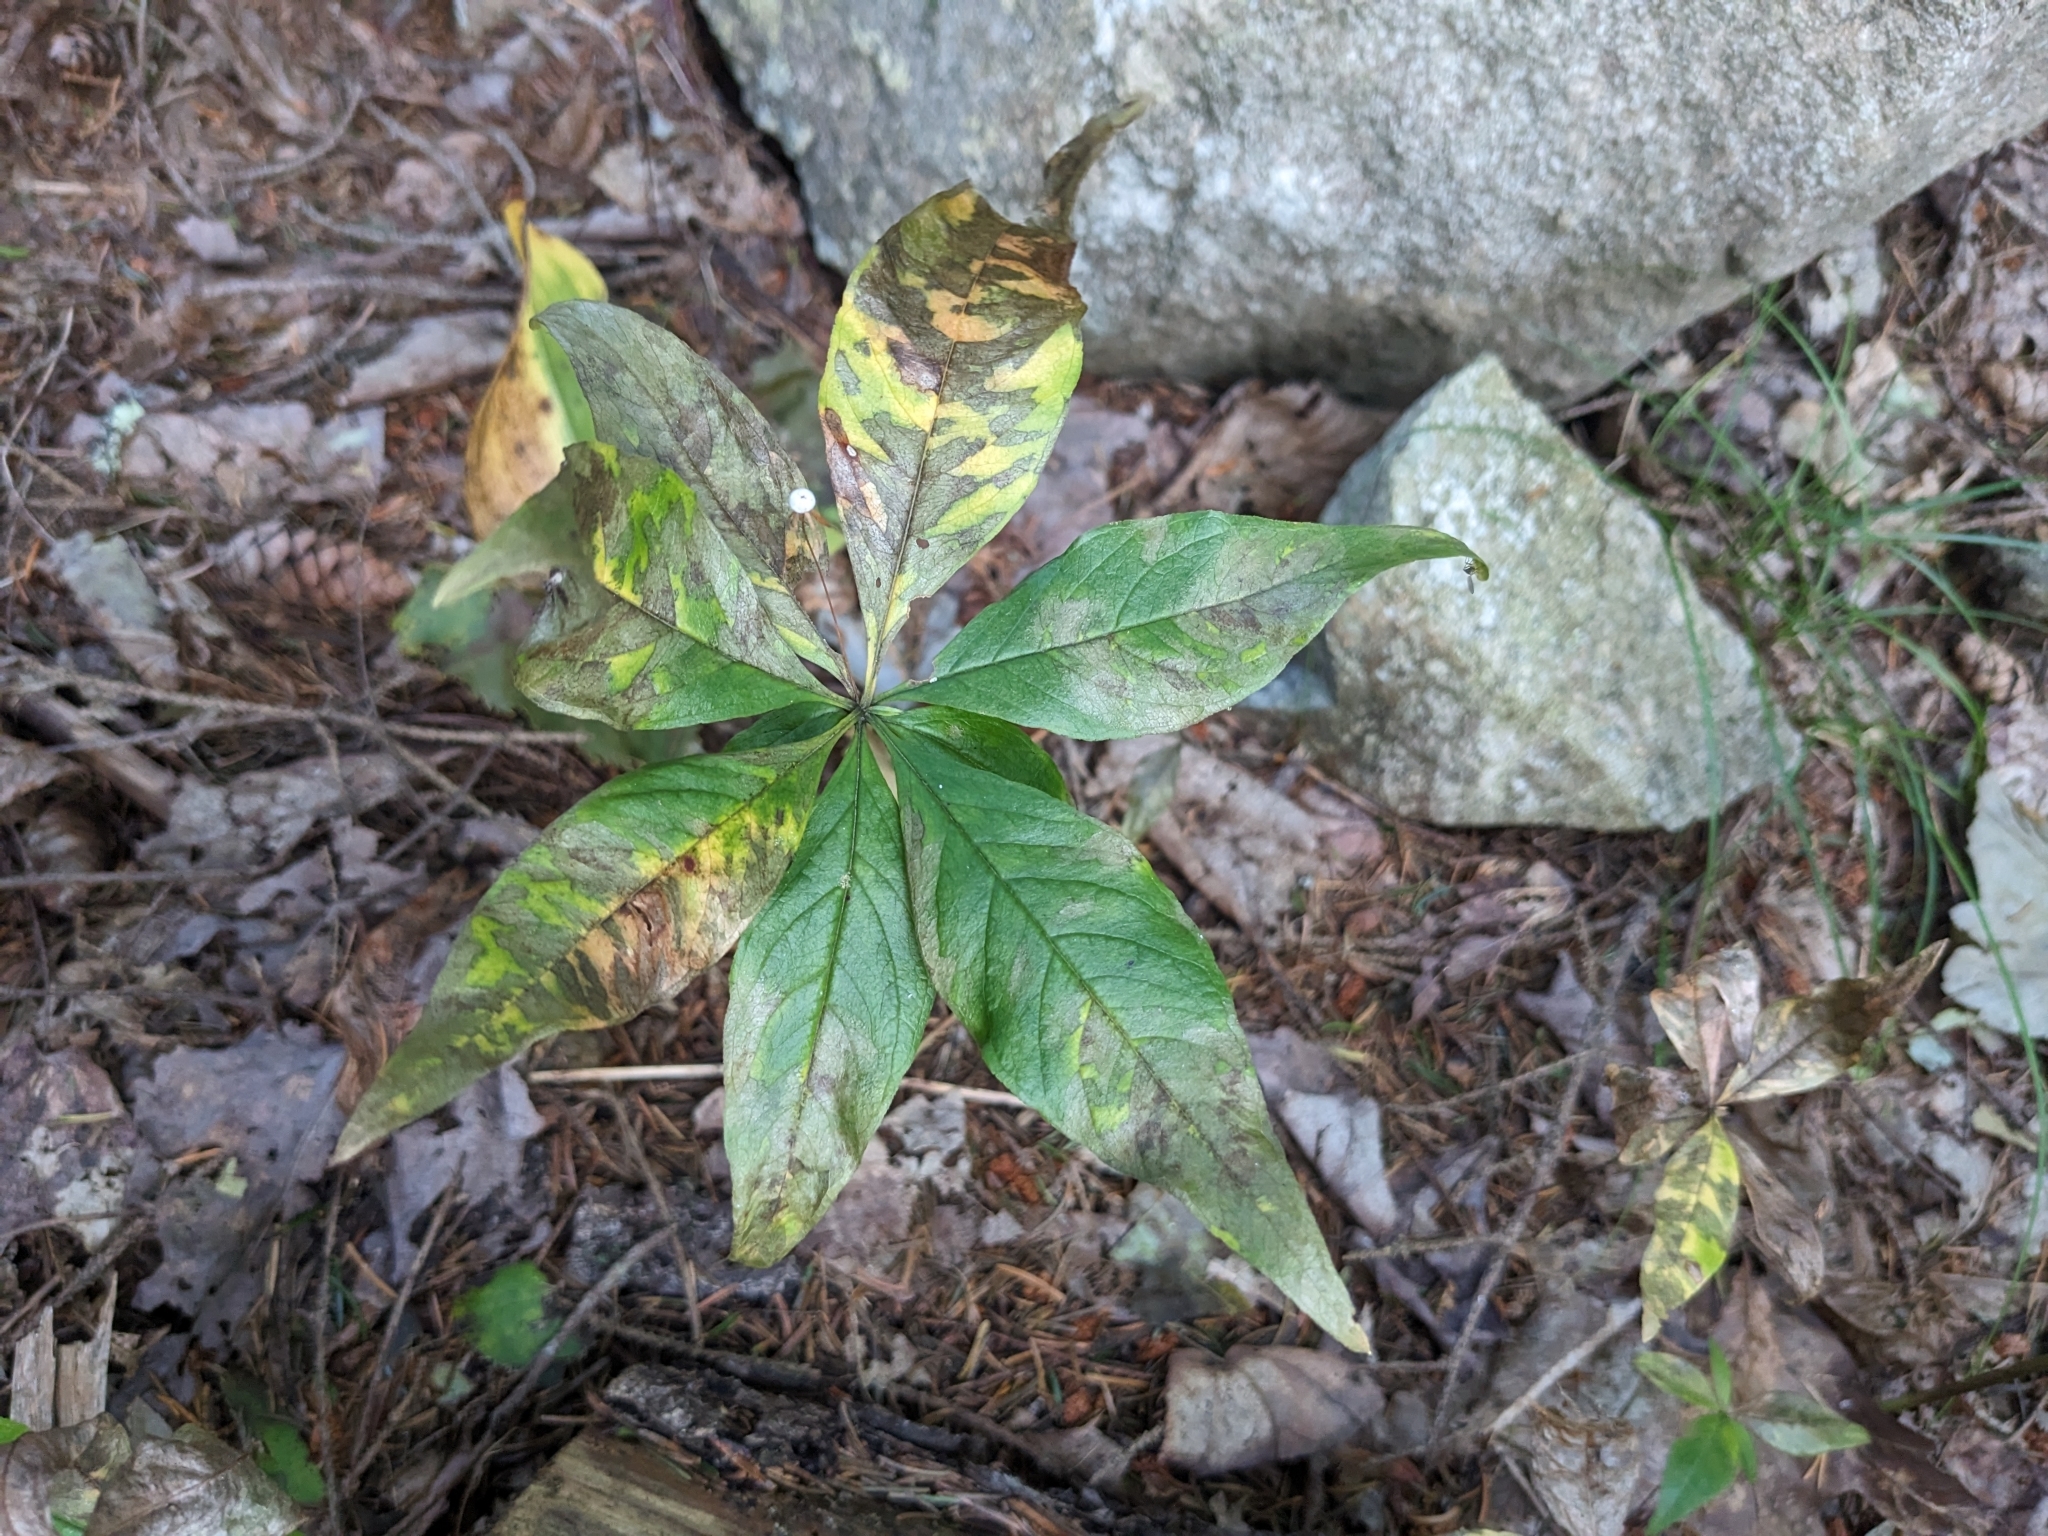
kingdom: Plantae
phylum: Tracheophyta
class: Magnoliopsida
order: Ericales
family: Primulaceae
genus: Lysimachia
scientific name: Lysimachia borealis
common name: American starflower
